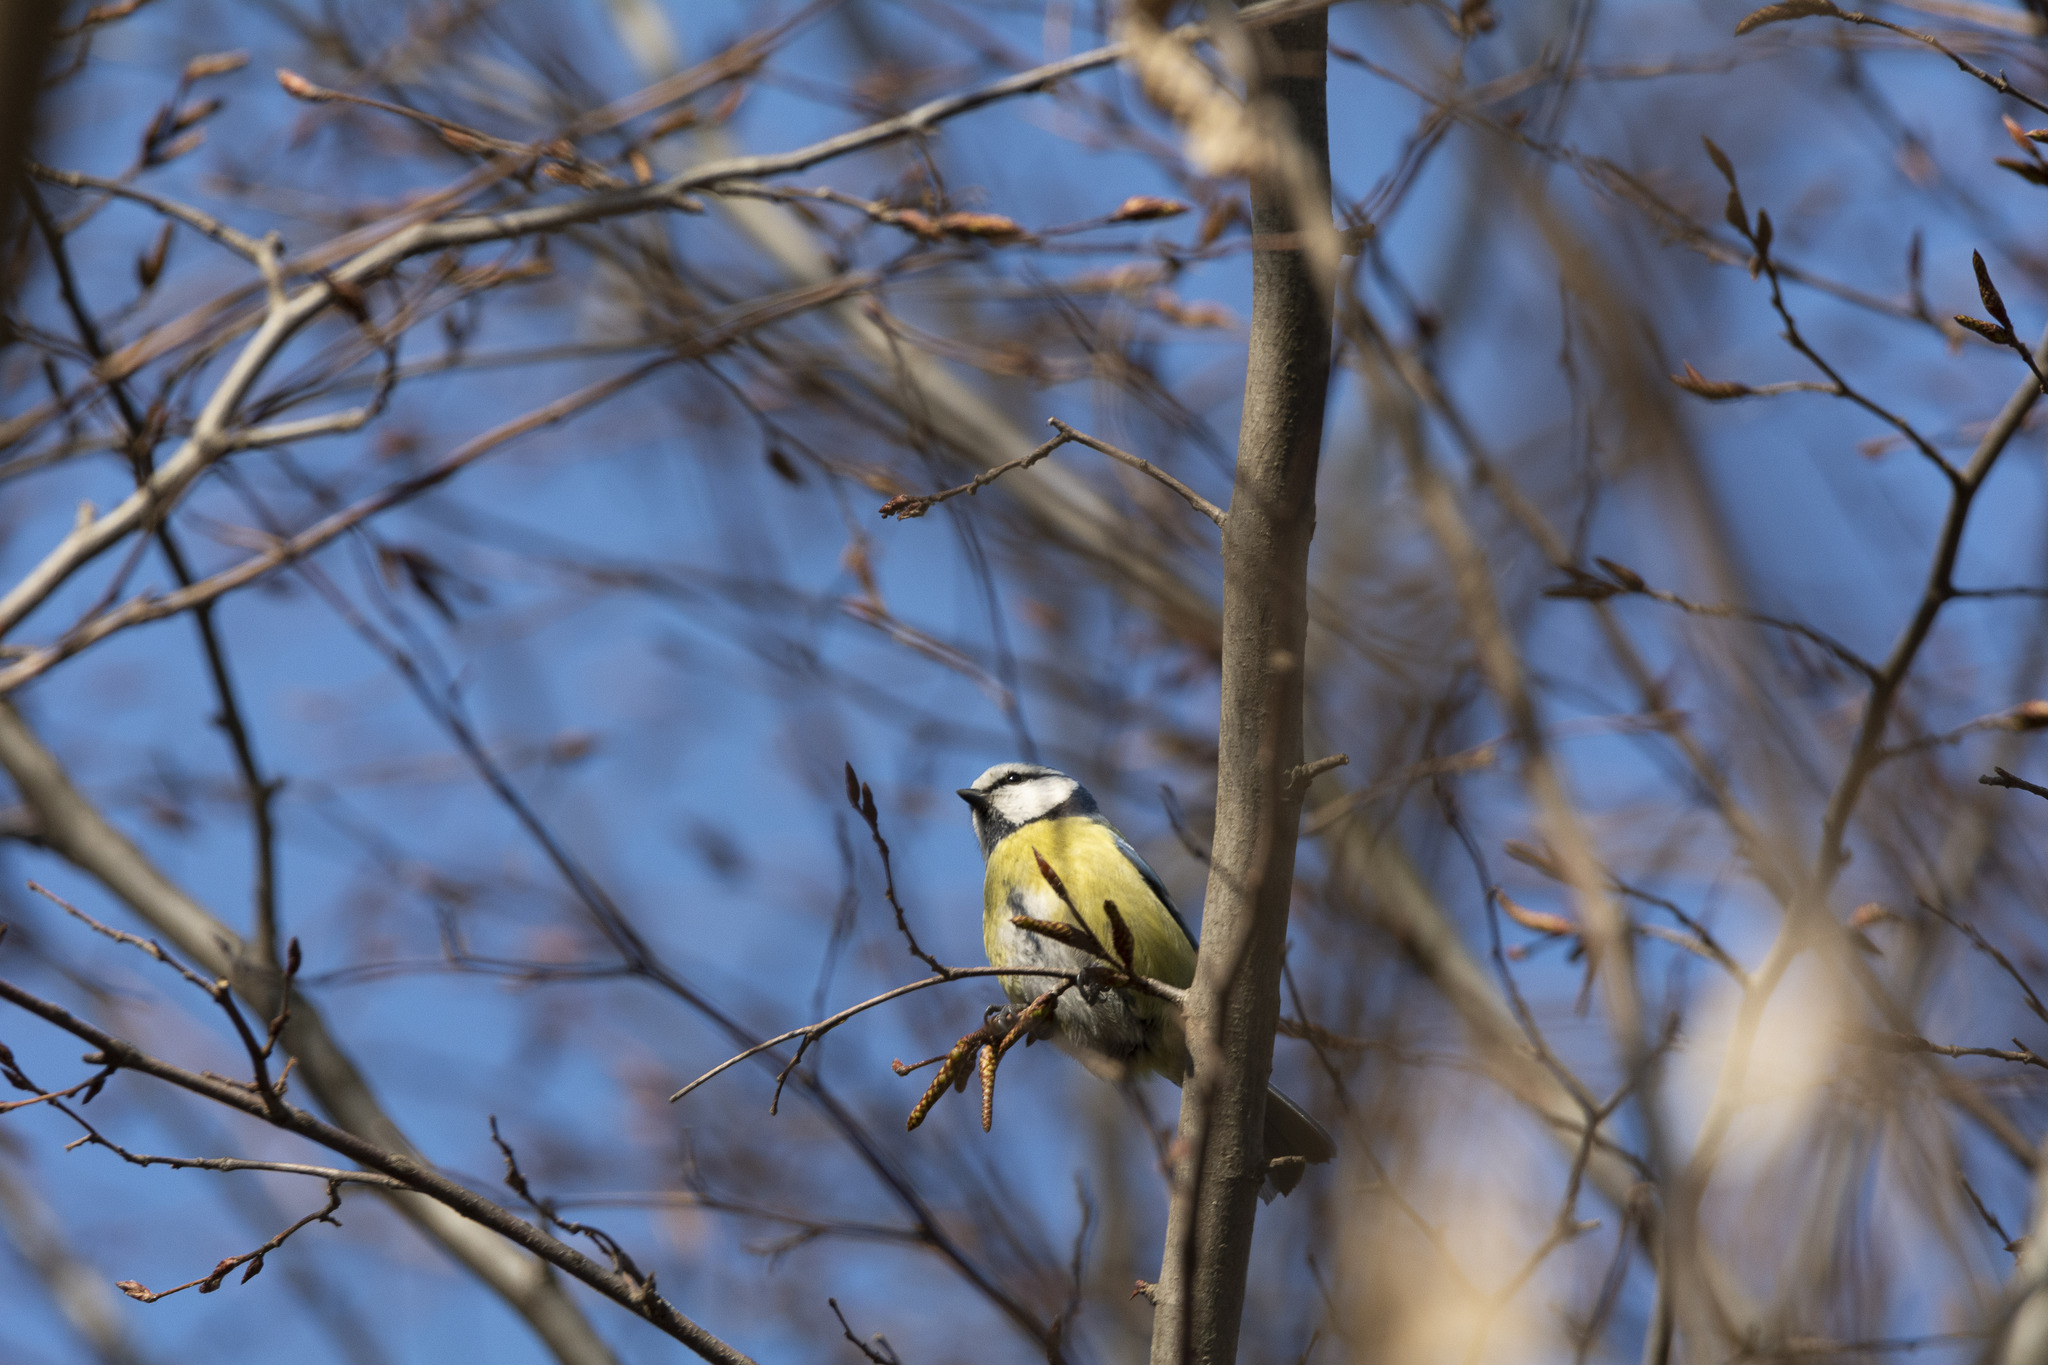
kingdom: Animalia
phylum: Chordata
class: Aves
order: Passeriformes
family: Paridae
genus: Cyanistes
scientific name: Cyanistes caeruleus
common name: Eurasian blue tit
